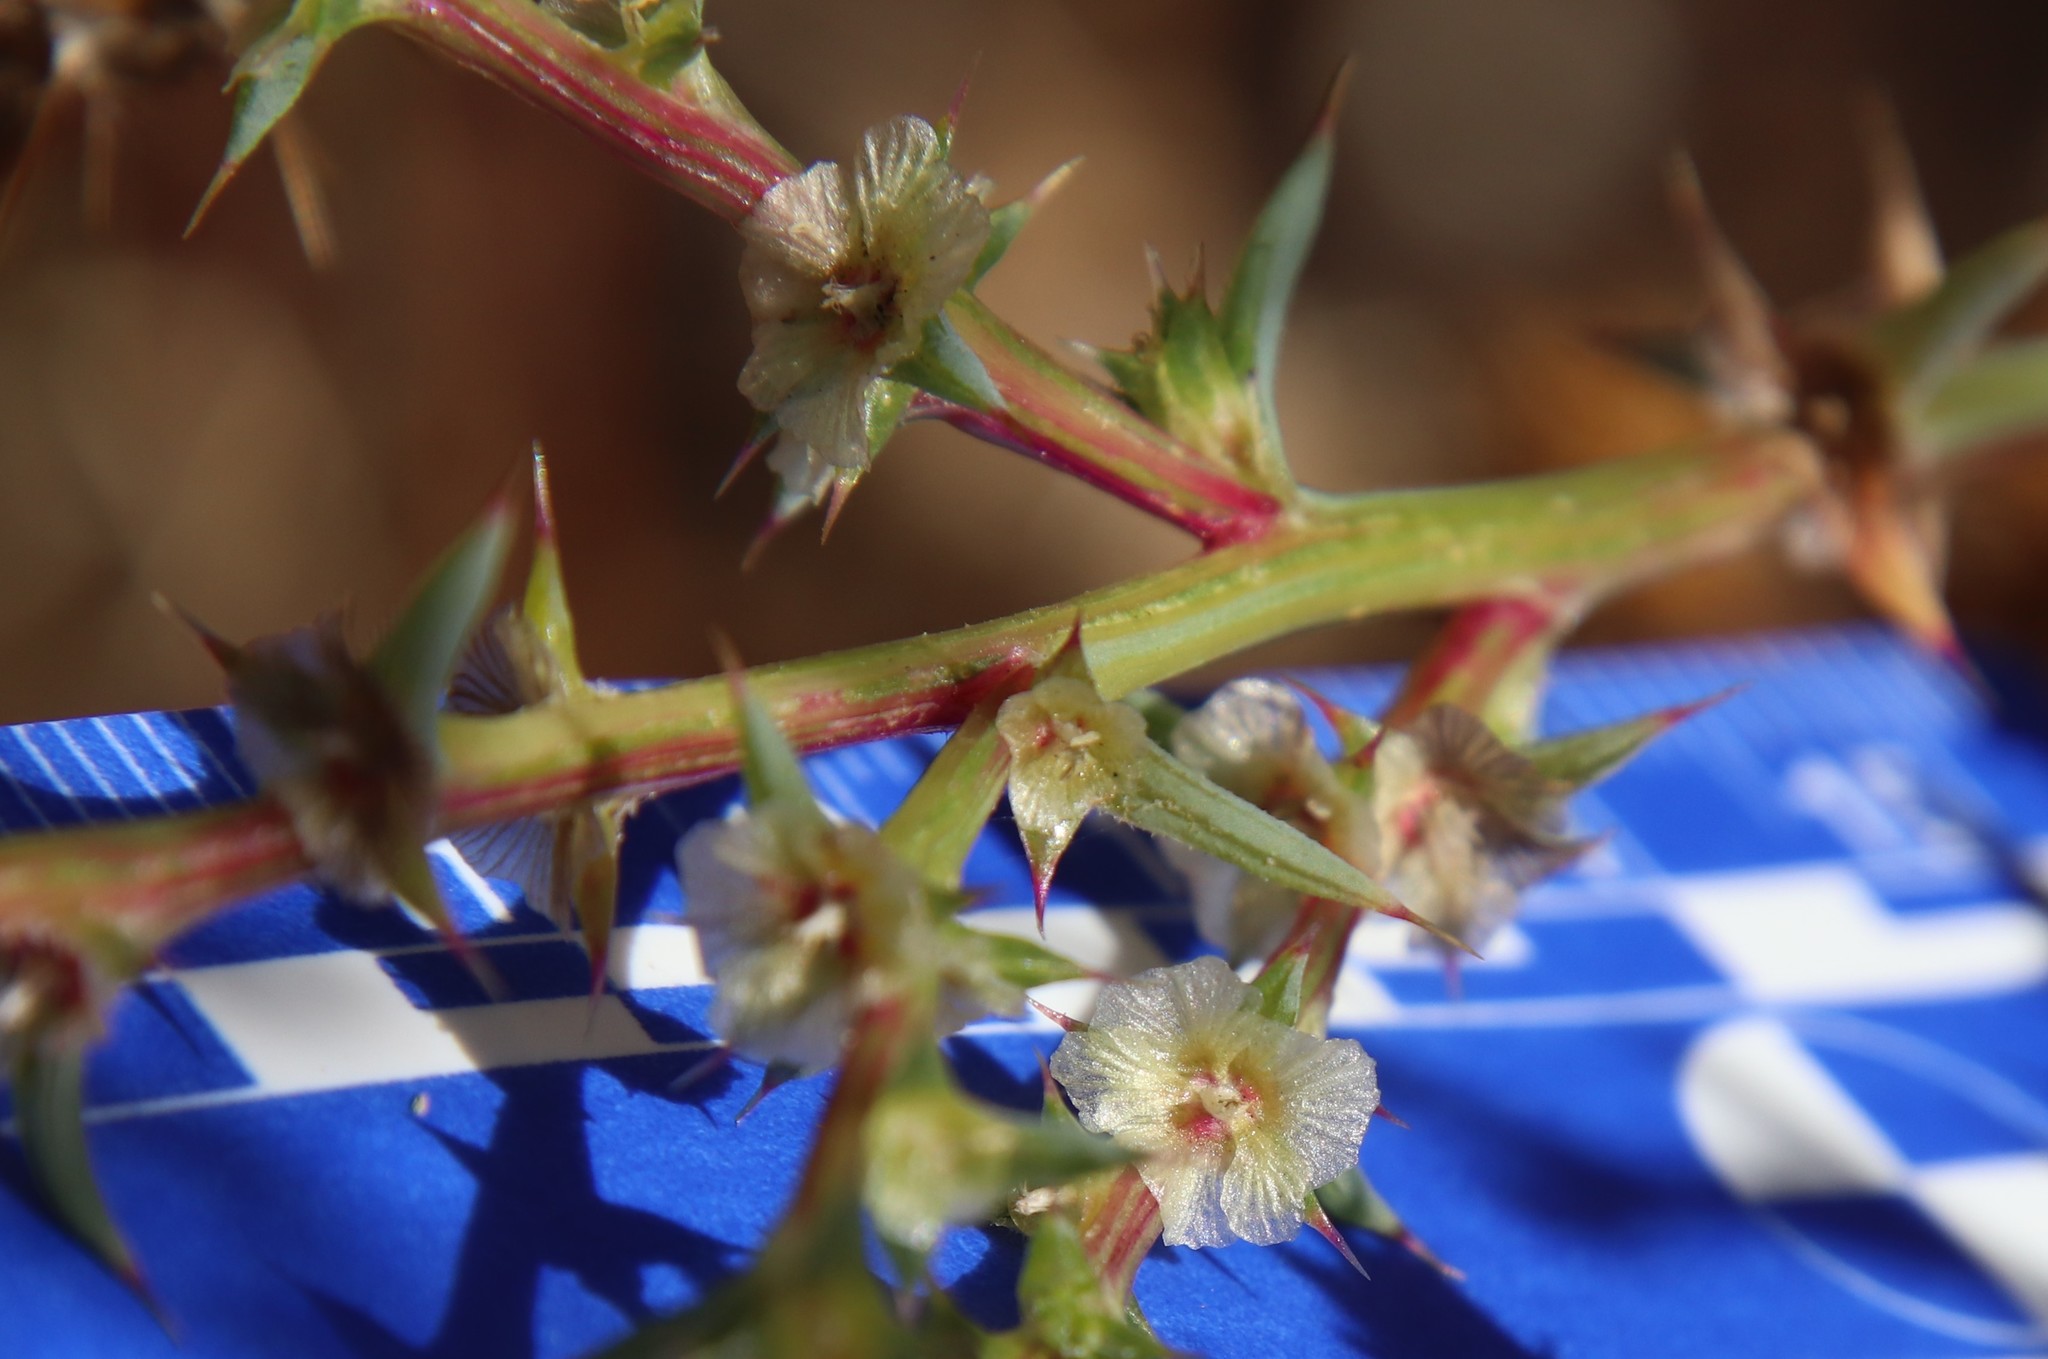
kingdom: Plantae
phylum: Tracheophyta
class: Magnoliopsida
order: Caryophyllales
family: Amaranthaceae
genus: Salsola
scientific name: Salsola australis
